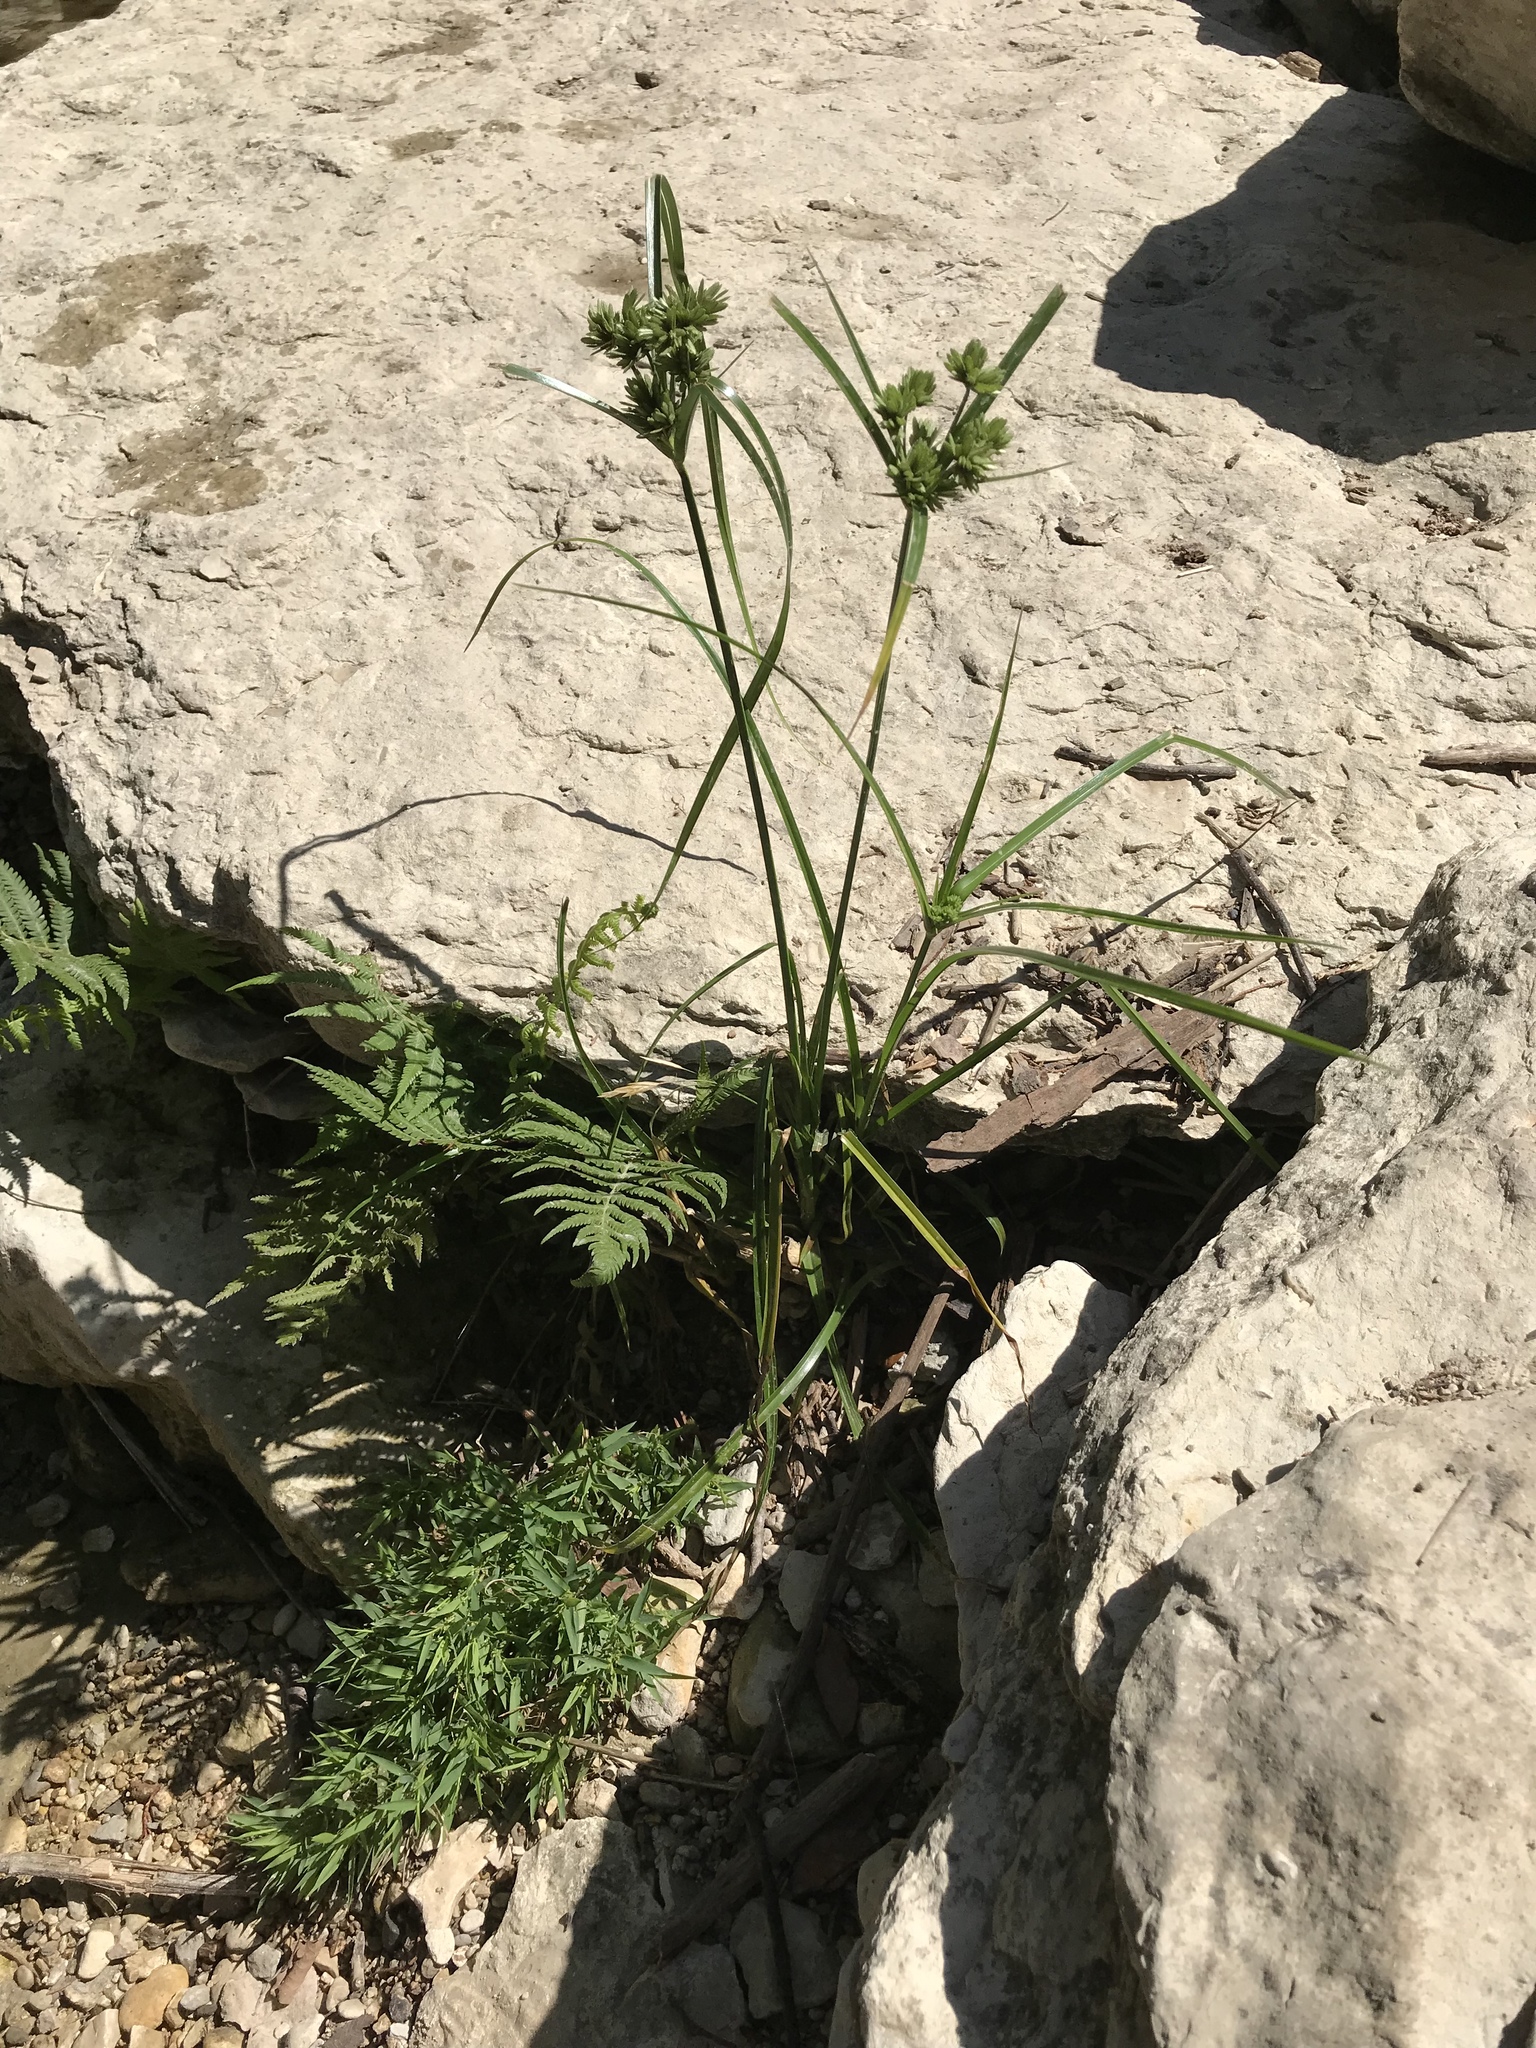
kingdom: Plantae
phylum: Tracheophyta
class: Liliopsida
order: Poales
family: Cyperaceae
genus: Cyperus
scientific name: Cyperus eragrostis
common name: Tall flatsedge
